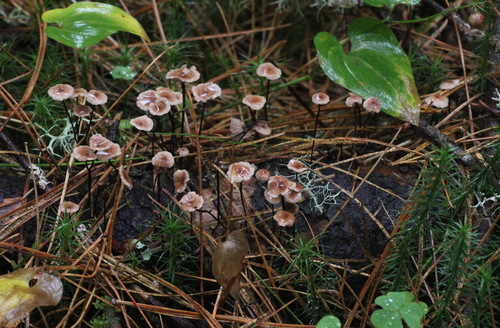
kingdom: Fungi
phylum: Basidiomycota
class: Agaricomycetes
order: Agaricales
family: Omphalotaceae
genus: Gymnopus
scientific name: Gymnopus androsaceus
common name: Horse-hair fungus
